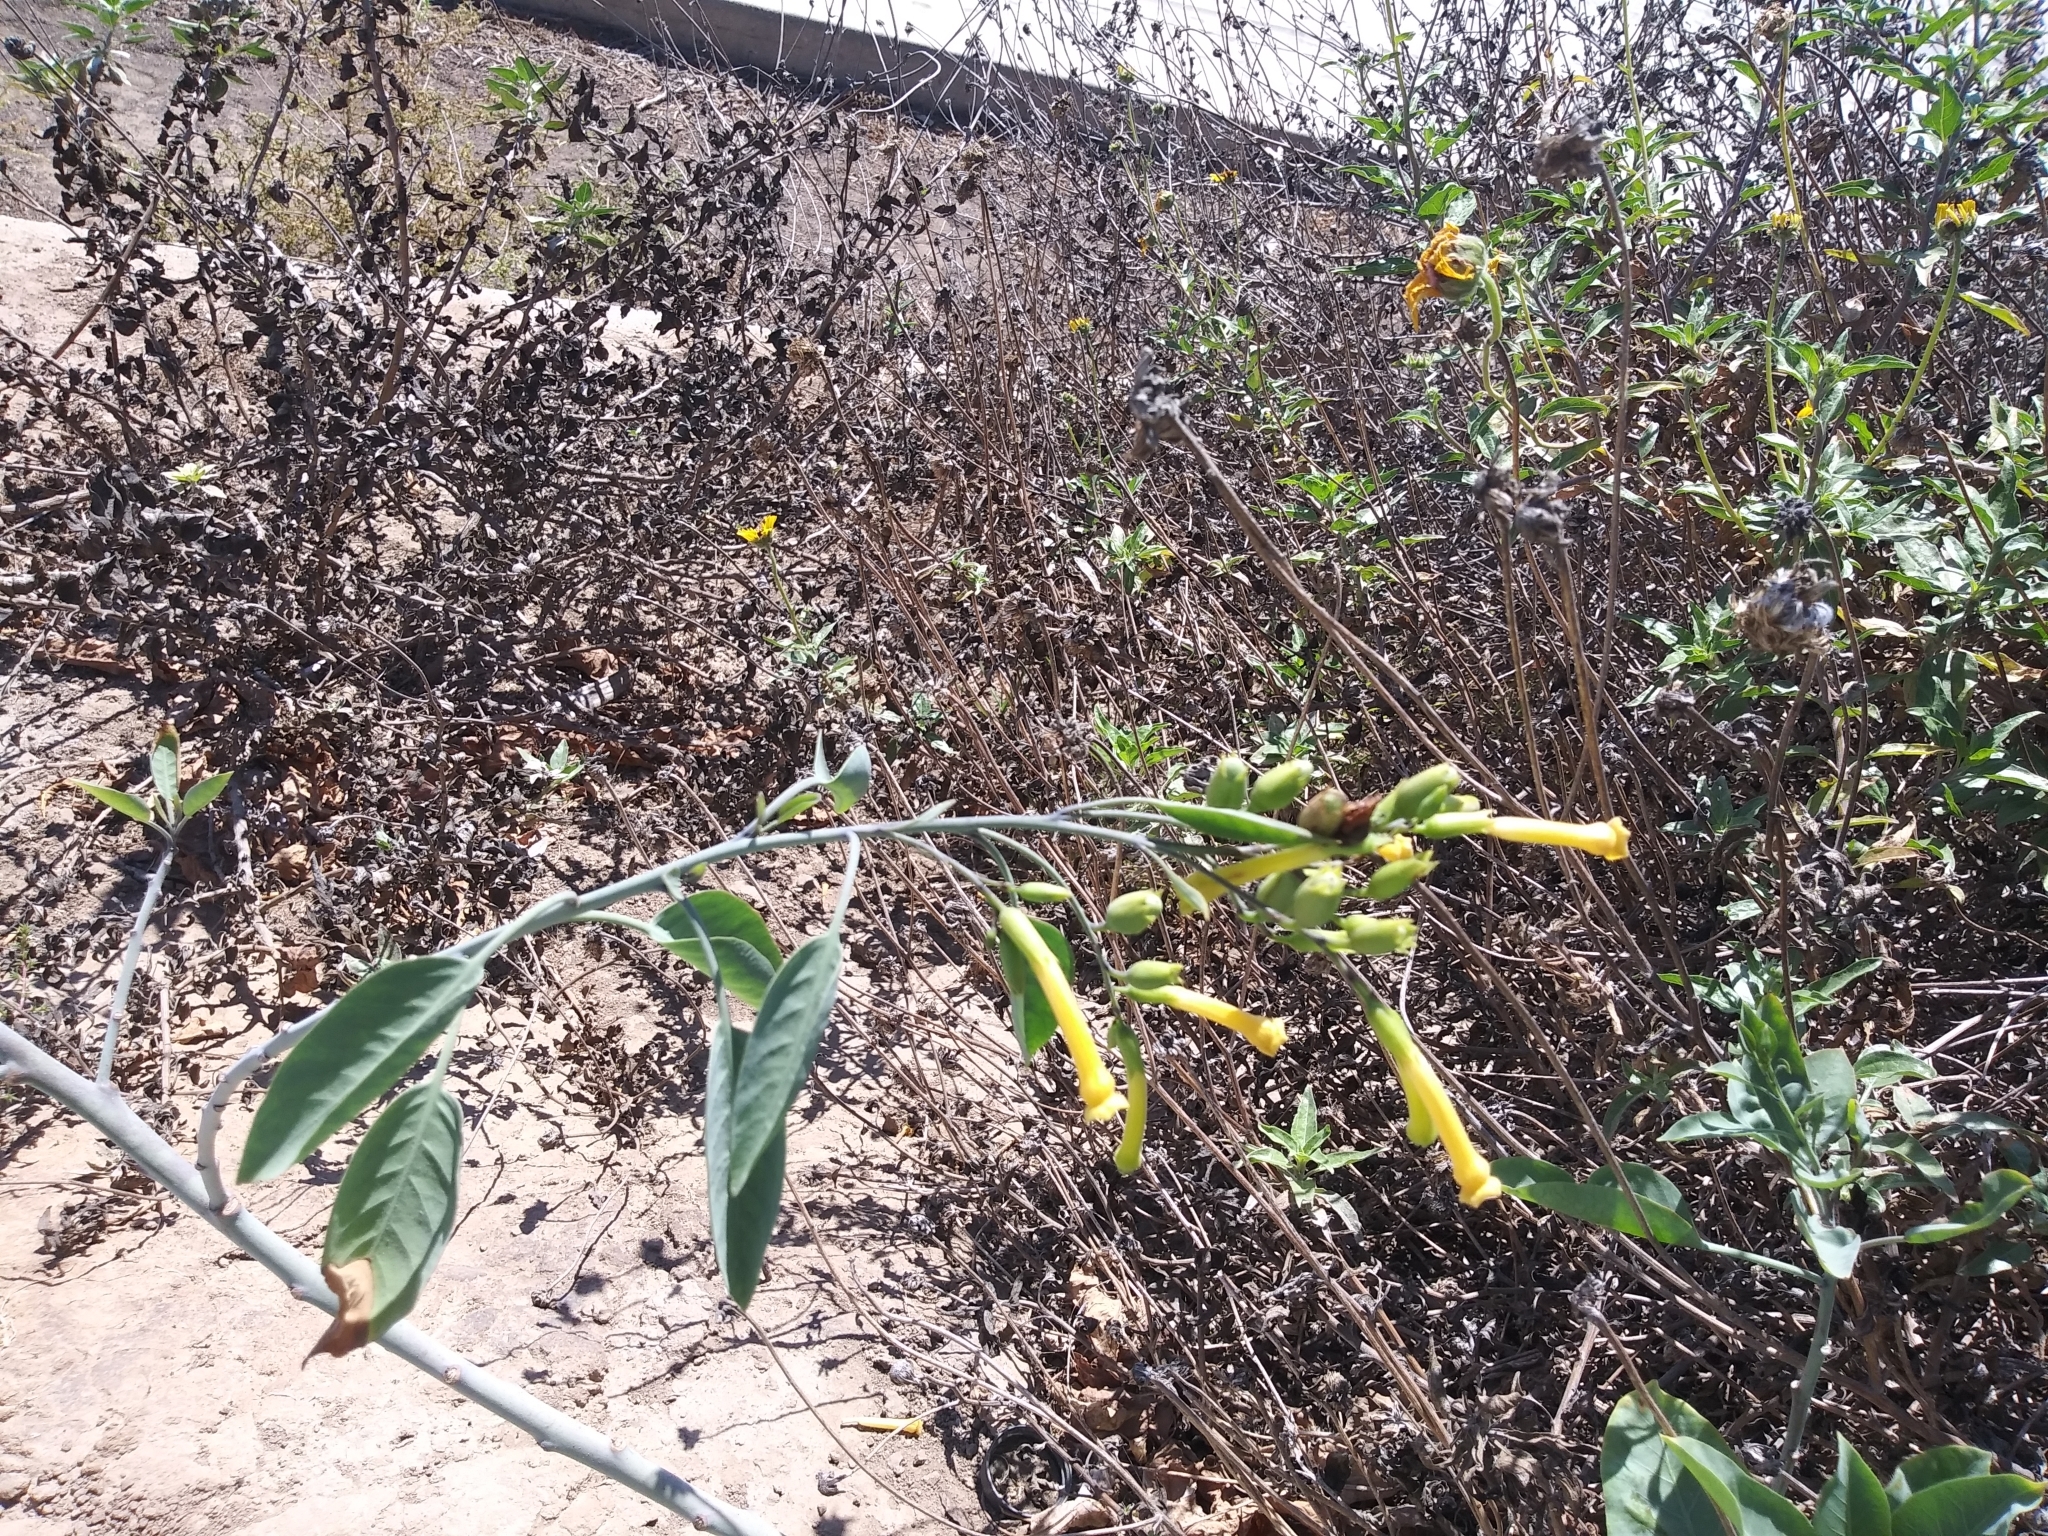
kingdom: Plantae
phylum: Tracheophyta
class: Magnoliopsida
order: Solanales
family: Solanaceae
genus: Nicotiana
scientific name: Nicotiana glauca
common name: Tree tobacco
